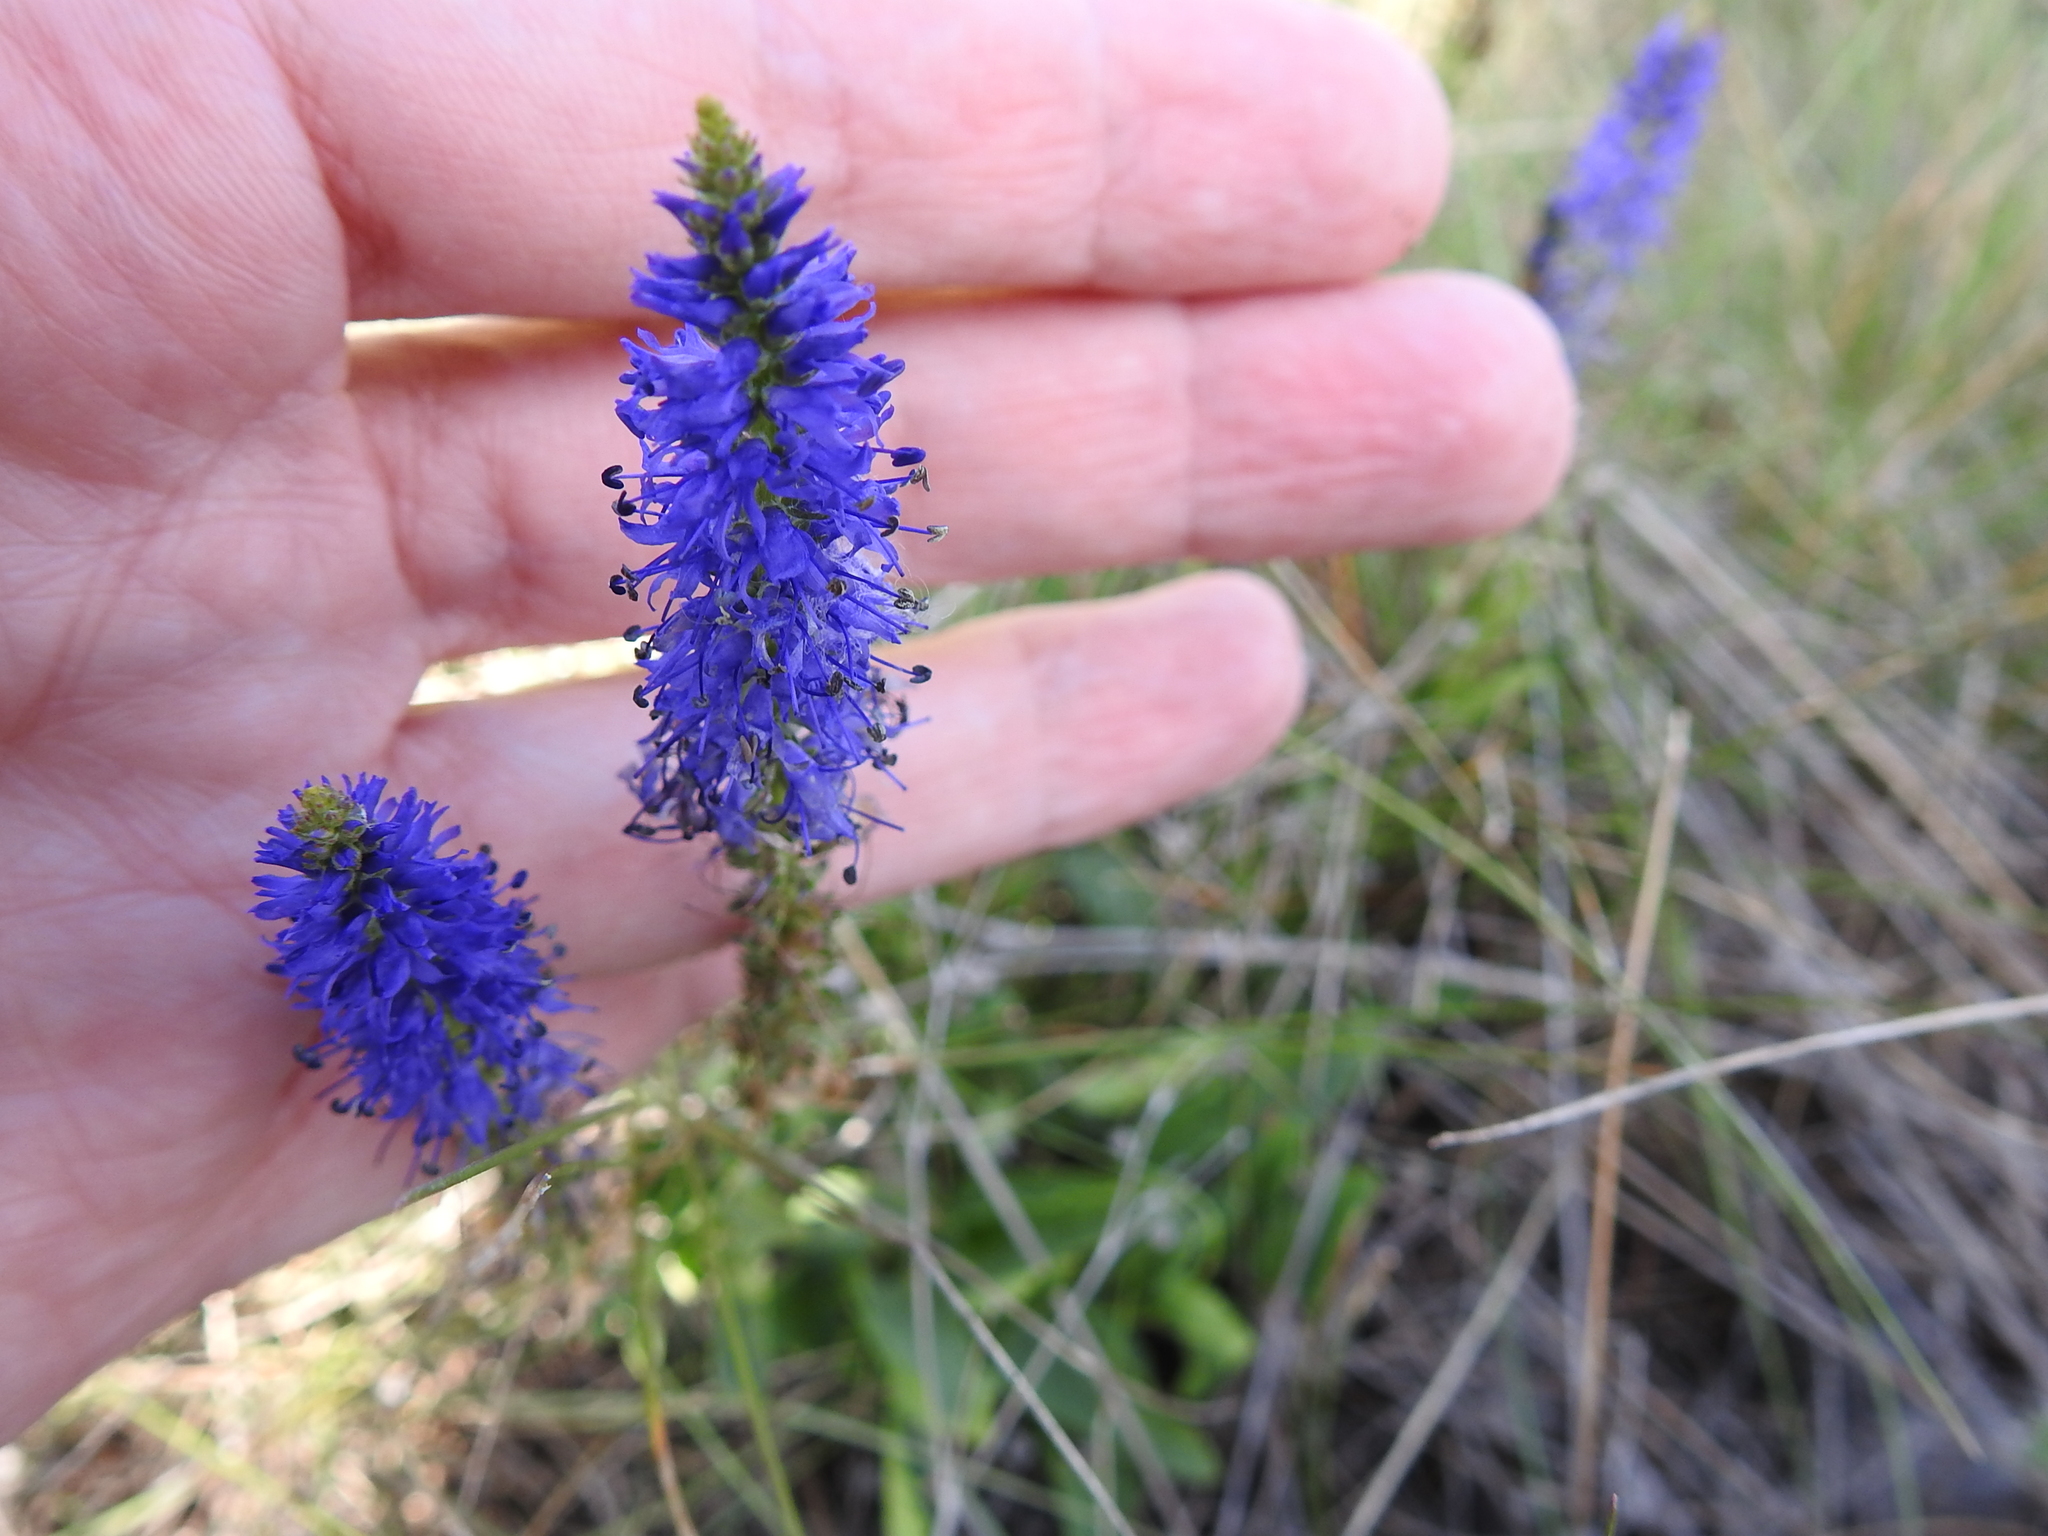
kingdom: Plantae
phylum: Tracheophyta
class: Magnoliopsida
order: Lamiales
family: Plantaginaceae
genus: Veronica
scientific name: Veronica spicata
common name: Spiked speedwell
